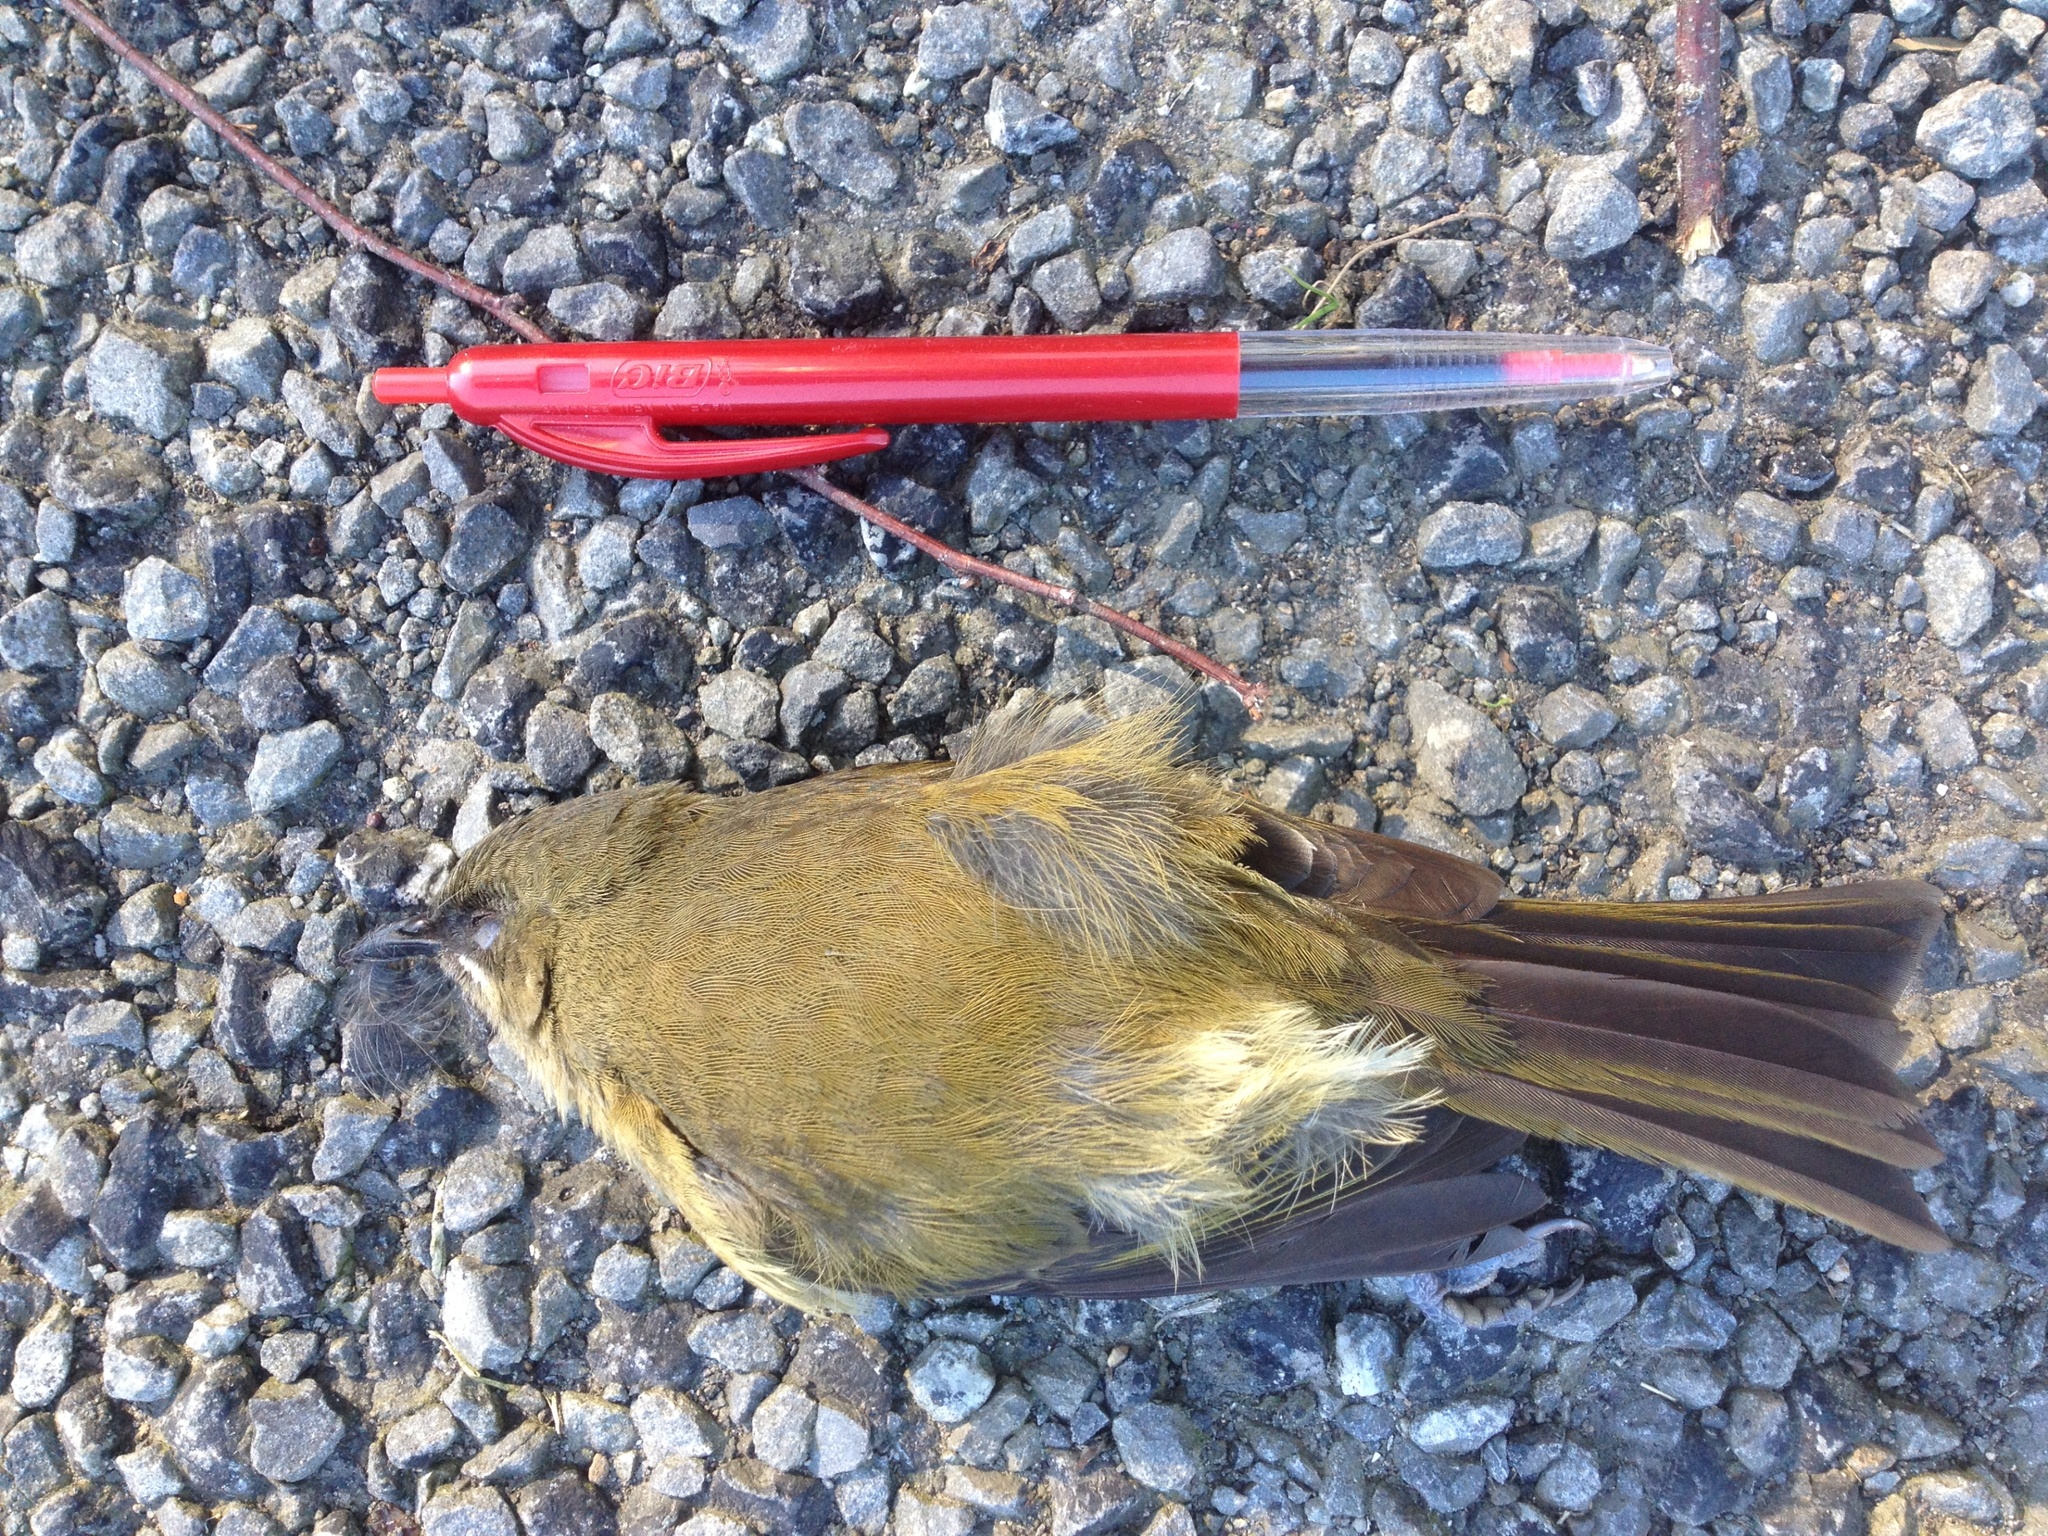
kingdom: Animalia
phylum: Chordata
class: Aves
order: Passeriformes
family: Meliphagidae
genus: Anthornis
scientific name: Anthornis melanura
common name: New zealand bellbird
